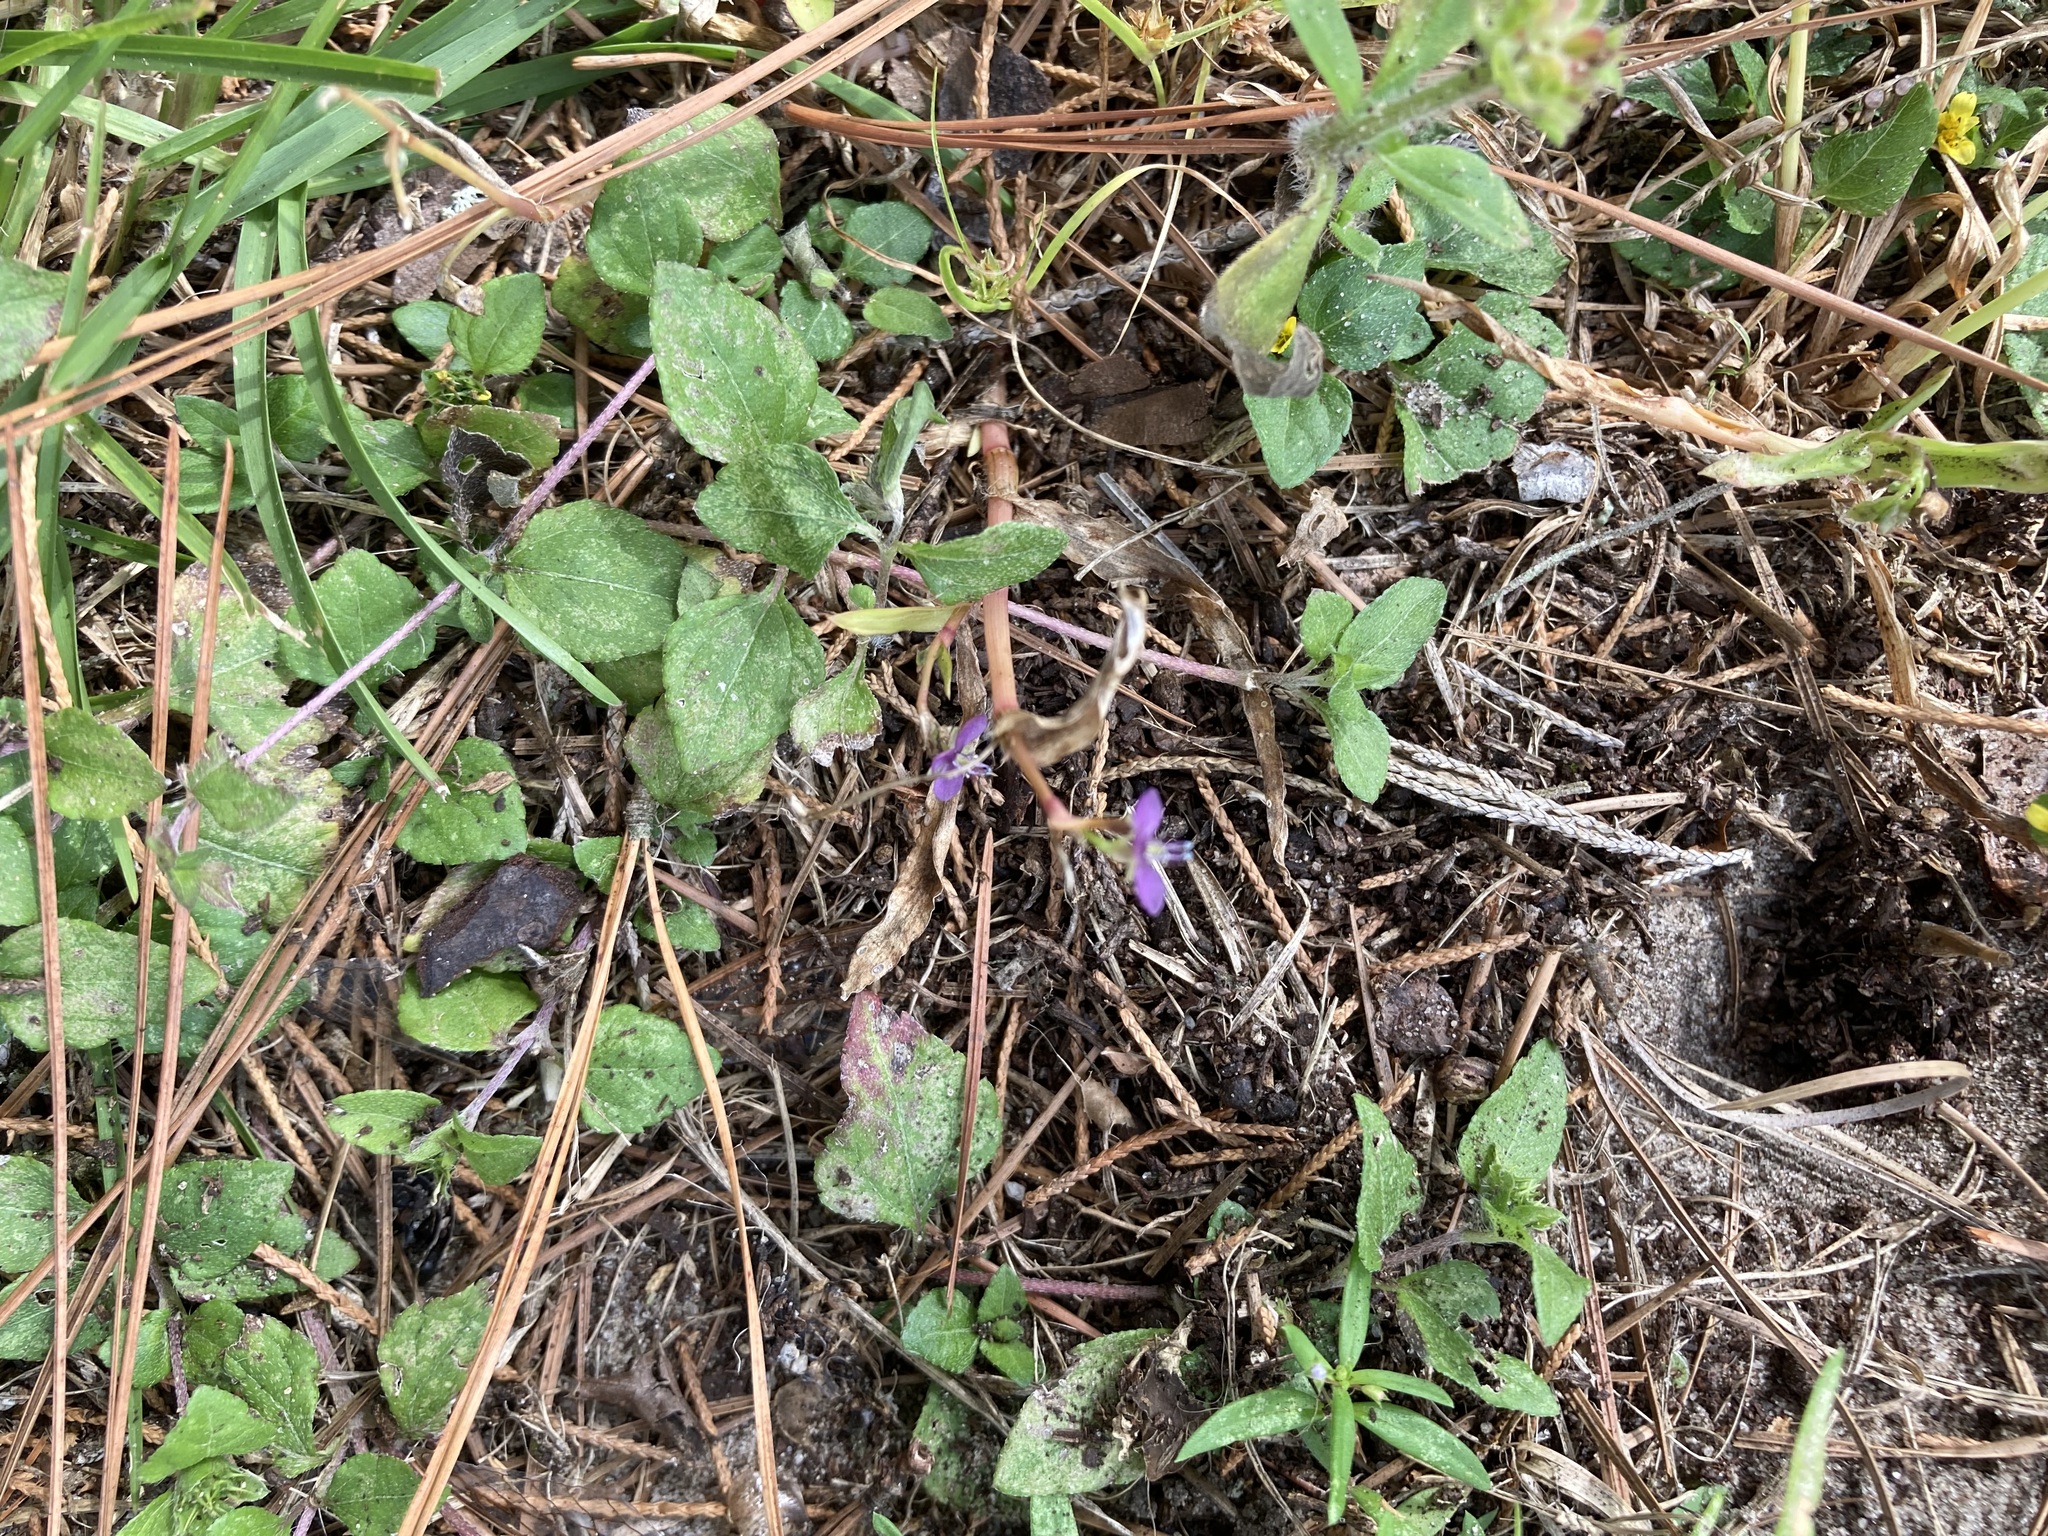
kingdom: Plantae
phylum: Tracheophyta
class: Liliopsida
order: Commelinales
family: Commelinaceae
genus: Murdannia
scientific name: Murdannia nudiflora
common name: Nakedstem dewflower
